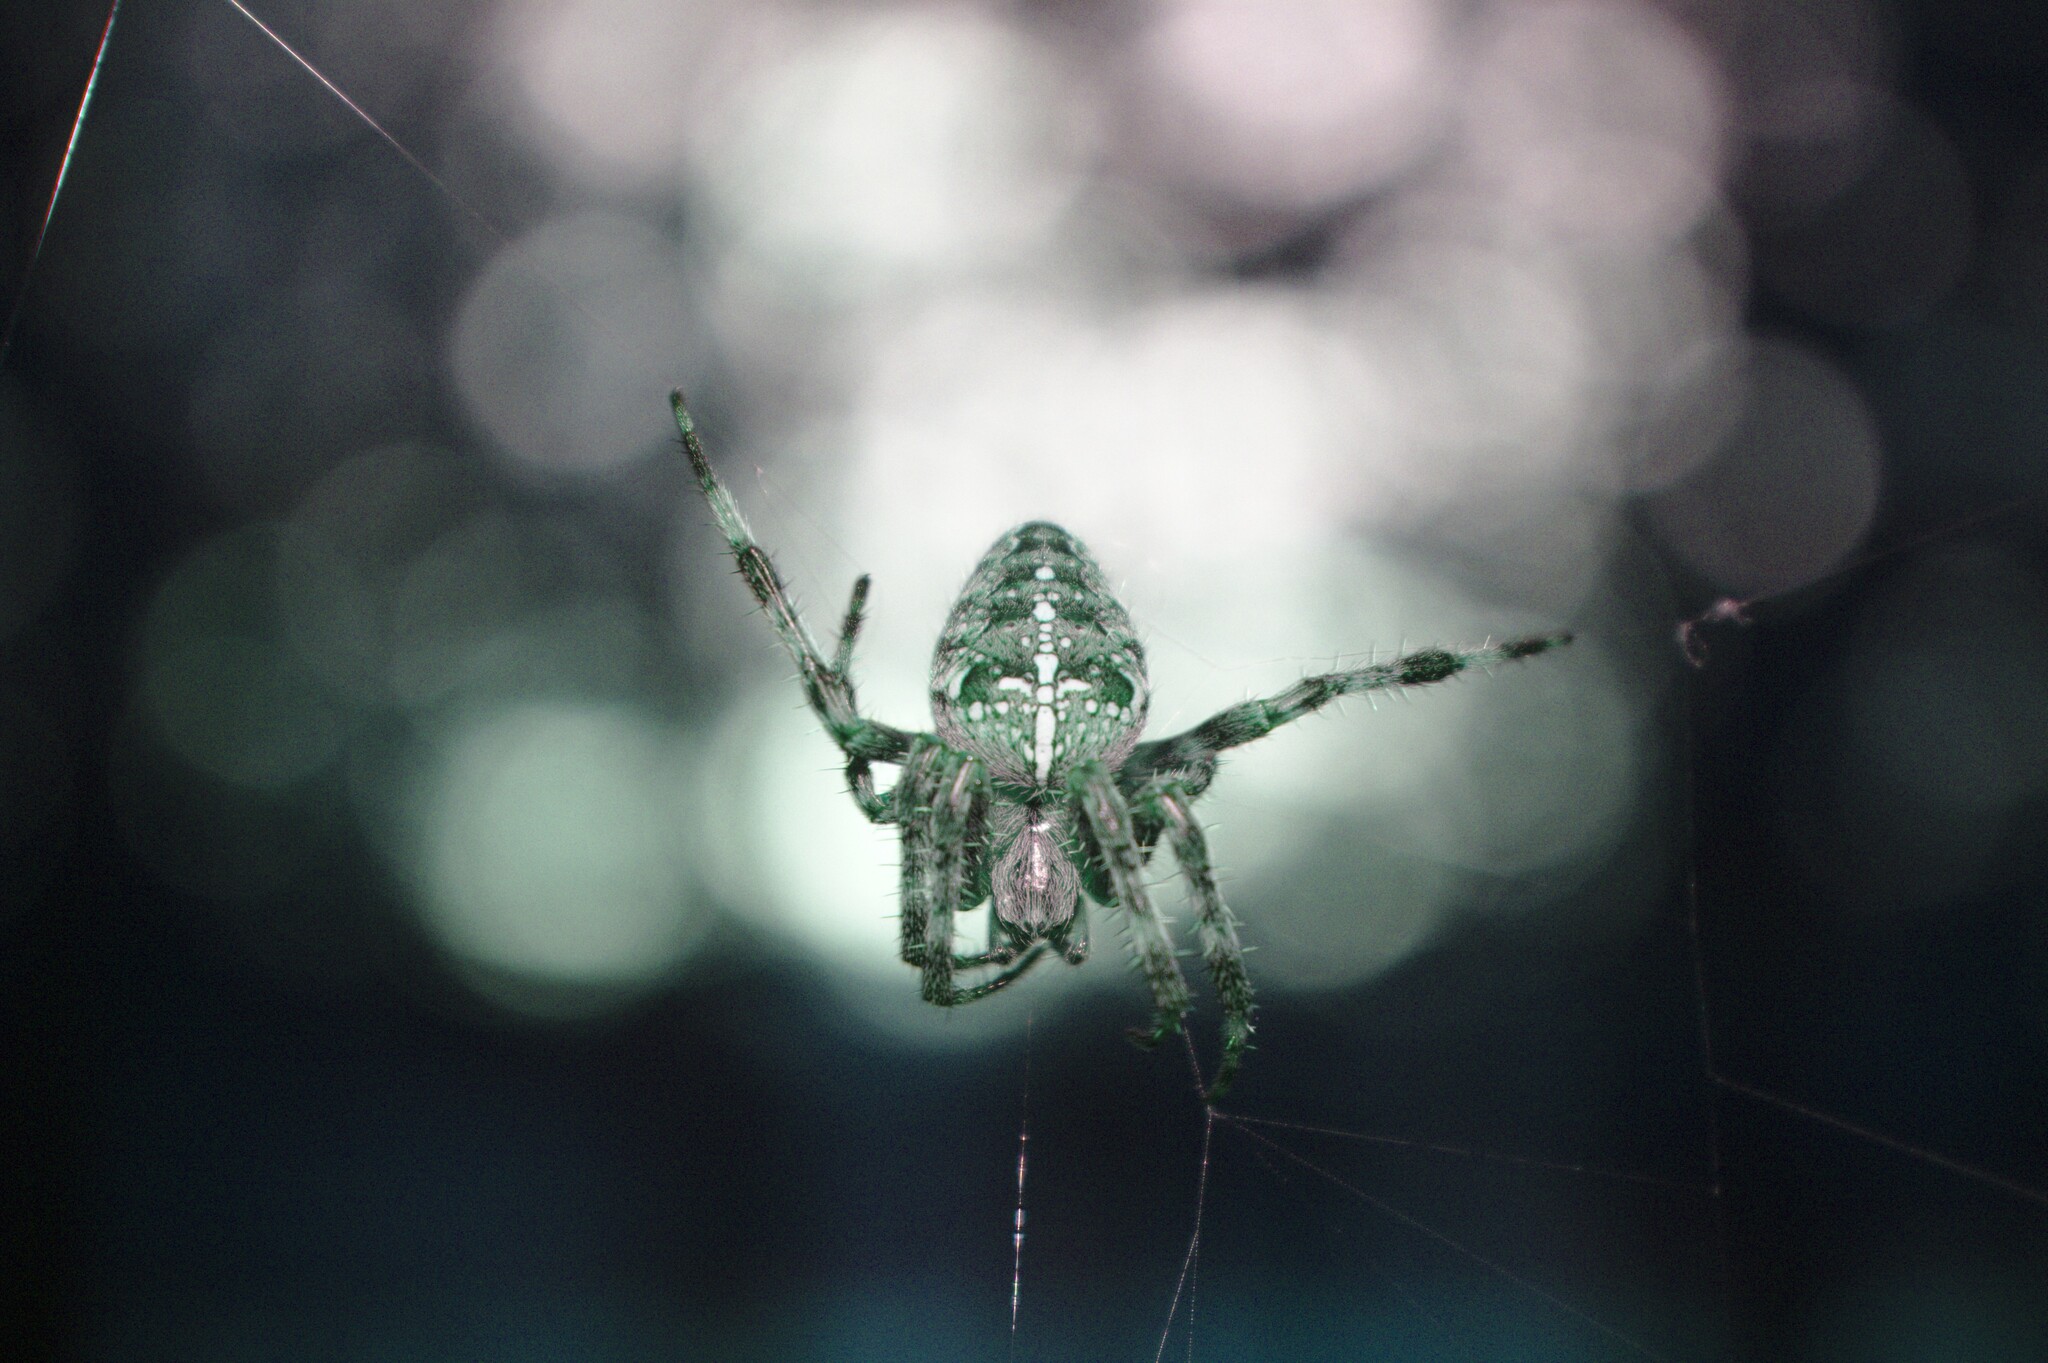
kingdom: Animalia
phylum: Arthropoda
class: Arachnida
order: Araneae
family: Araneidae
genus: Araneus
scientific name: Araneus diadematus
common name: Cross orbweaver
